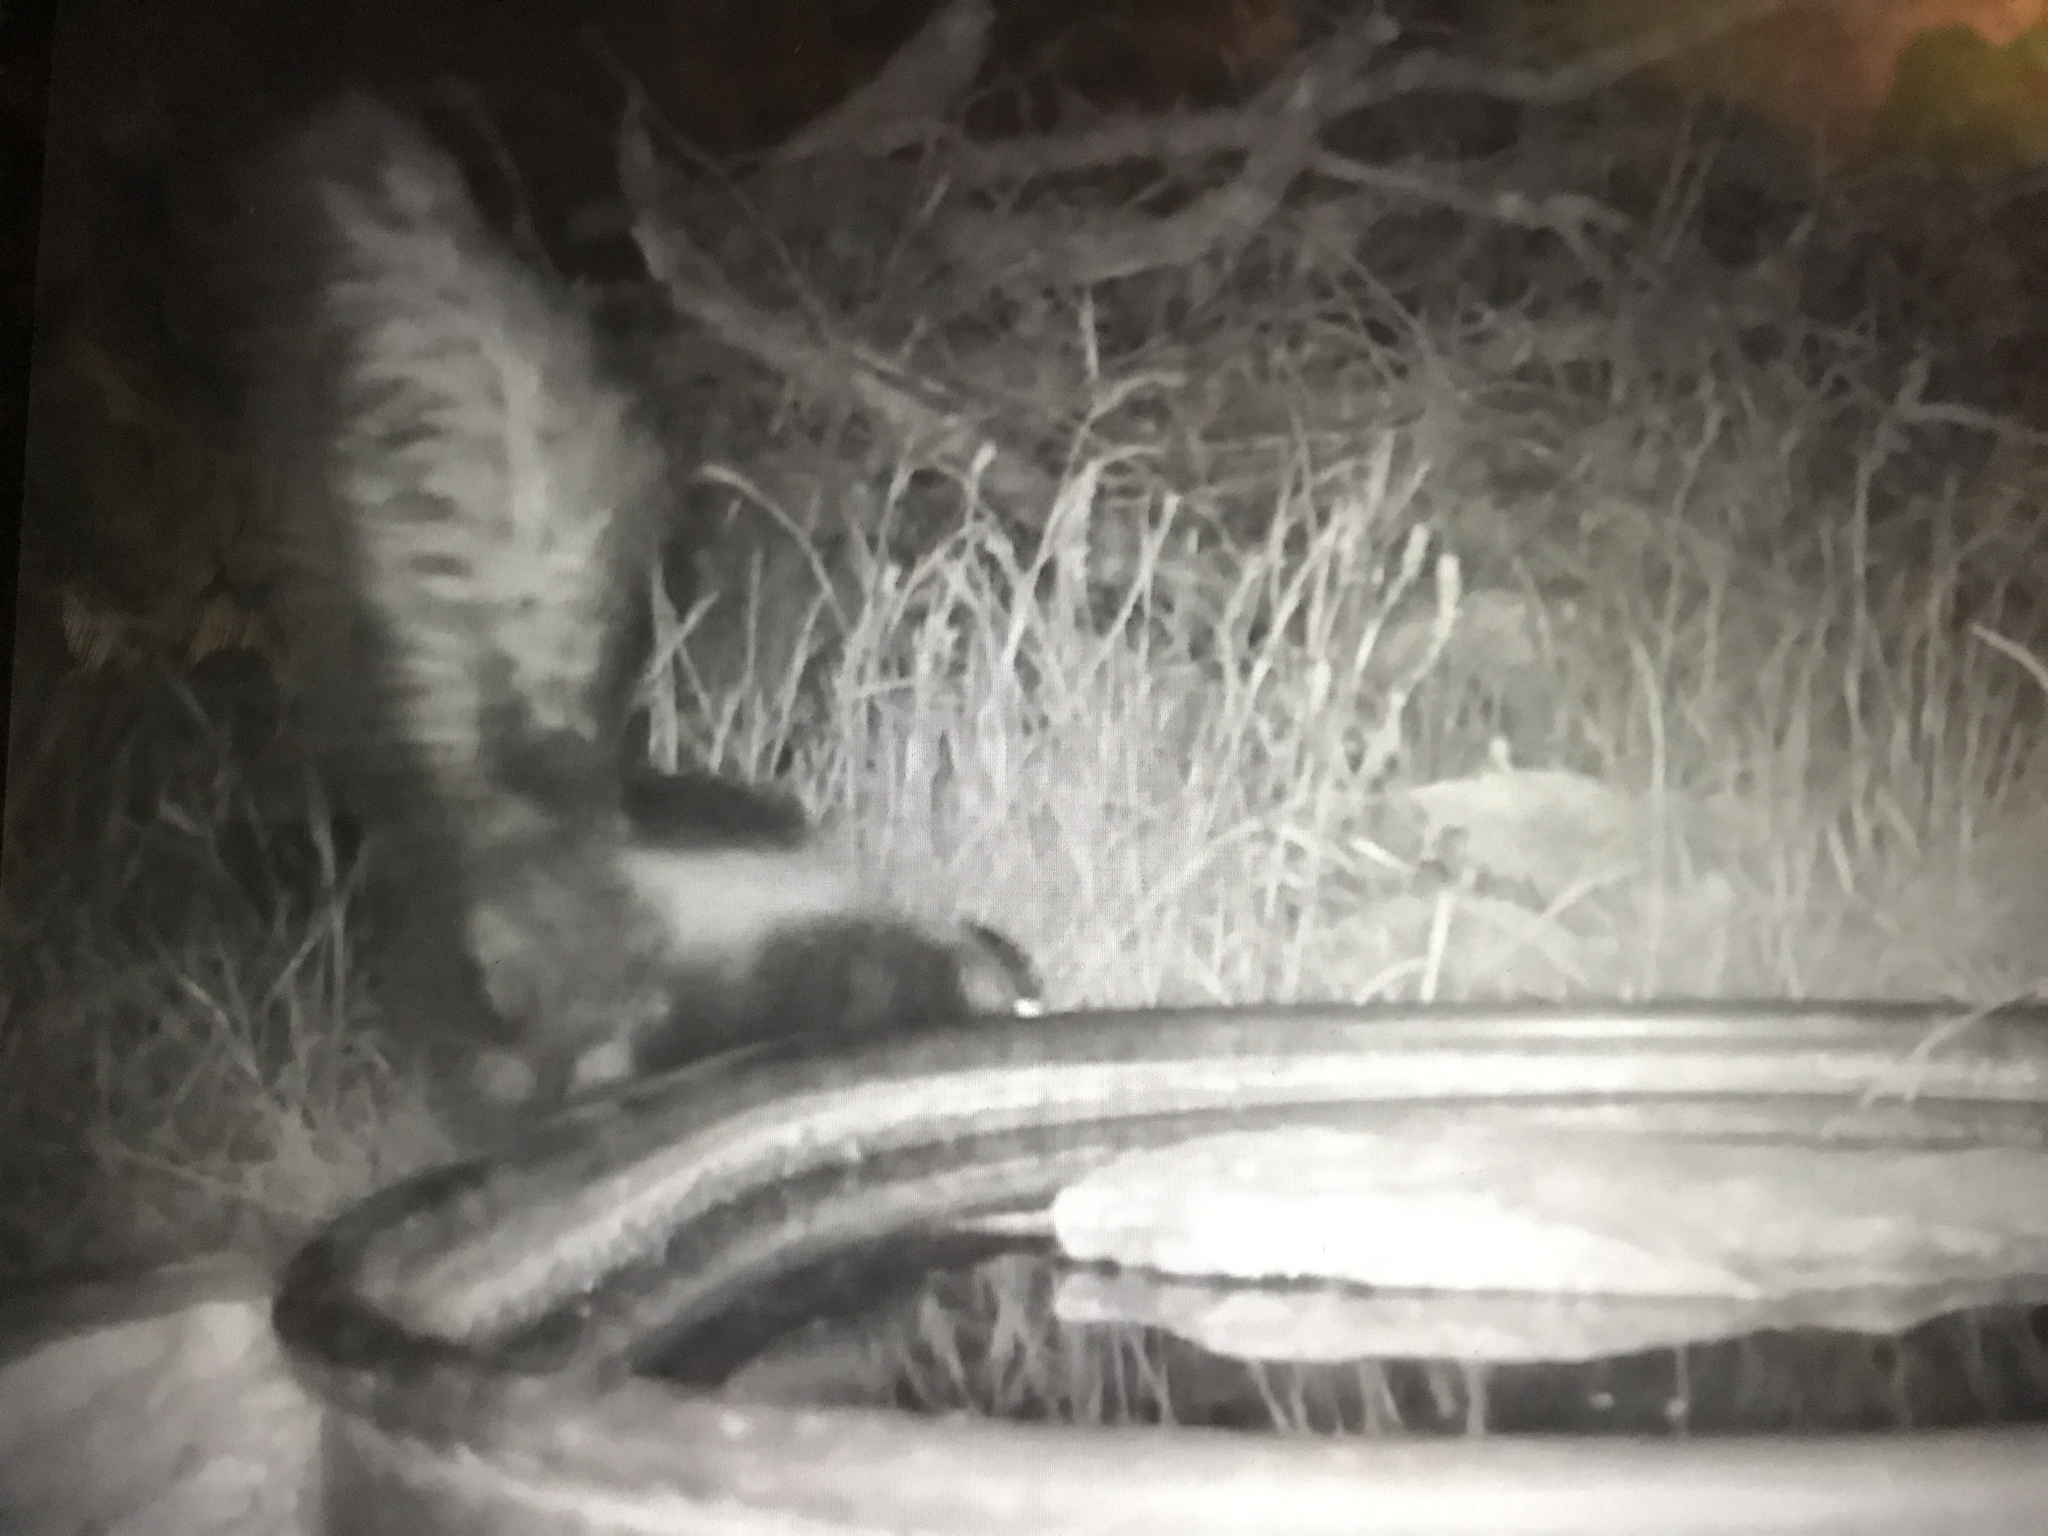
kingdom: Animalia
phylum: Chordata
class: Mammalia
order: Carnivora
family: Mephitidae
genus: Mephitis
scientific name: Mephitis mephitis
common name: Striped skunk
